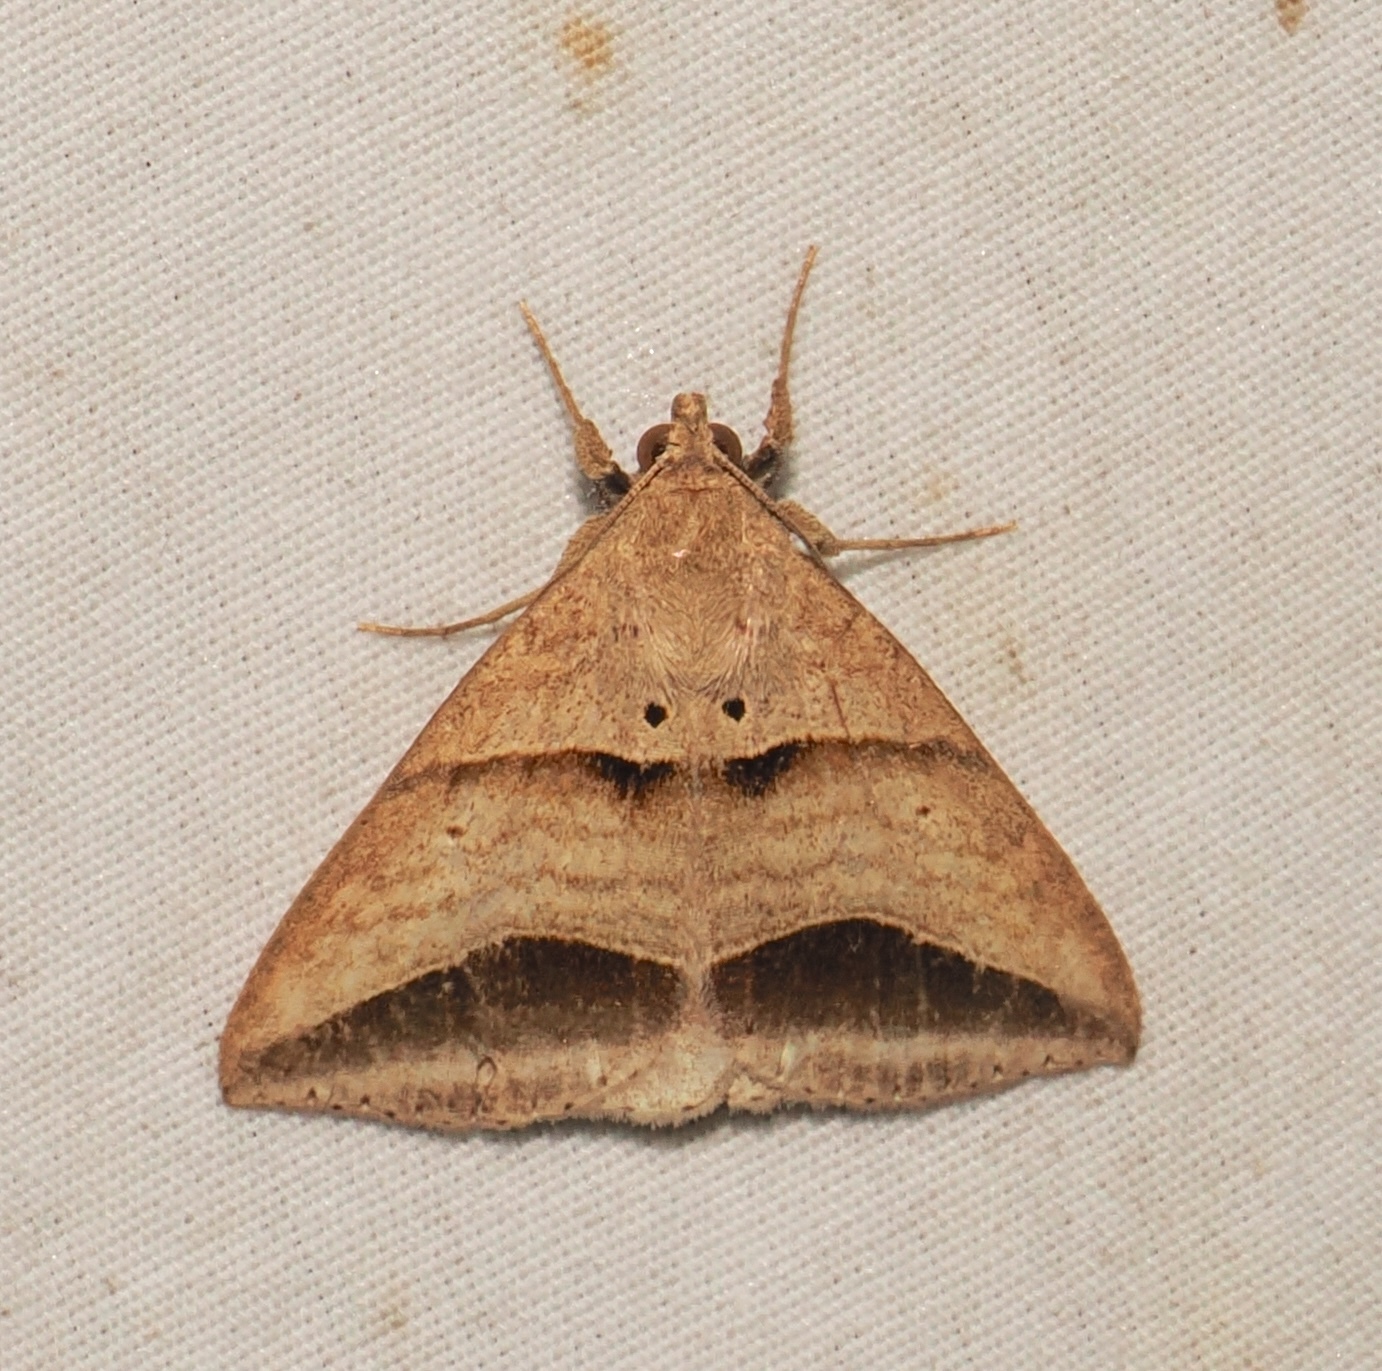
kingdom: Animalia
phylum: Arthropoda
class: Insecta
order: Lepidoptera
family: Erebidae
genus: Perasia
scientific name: Perasia flexa
